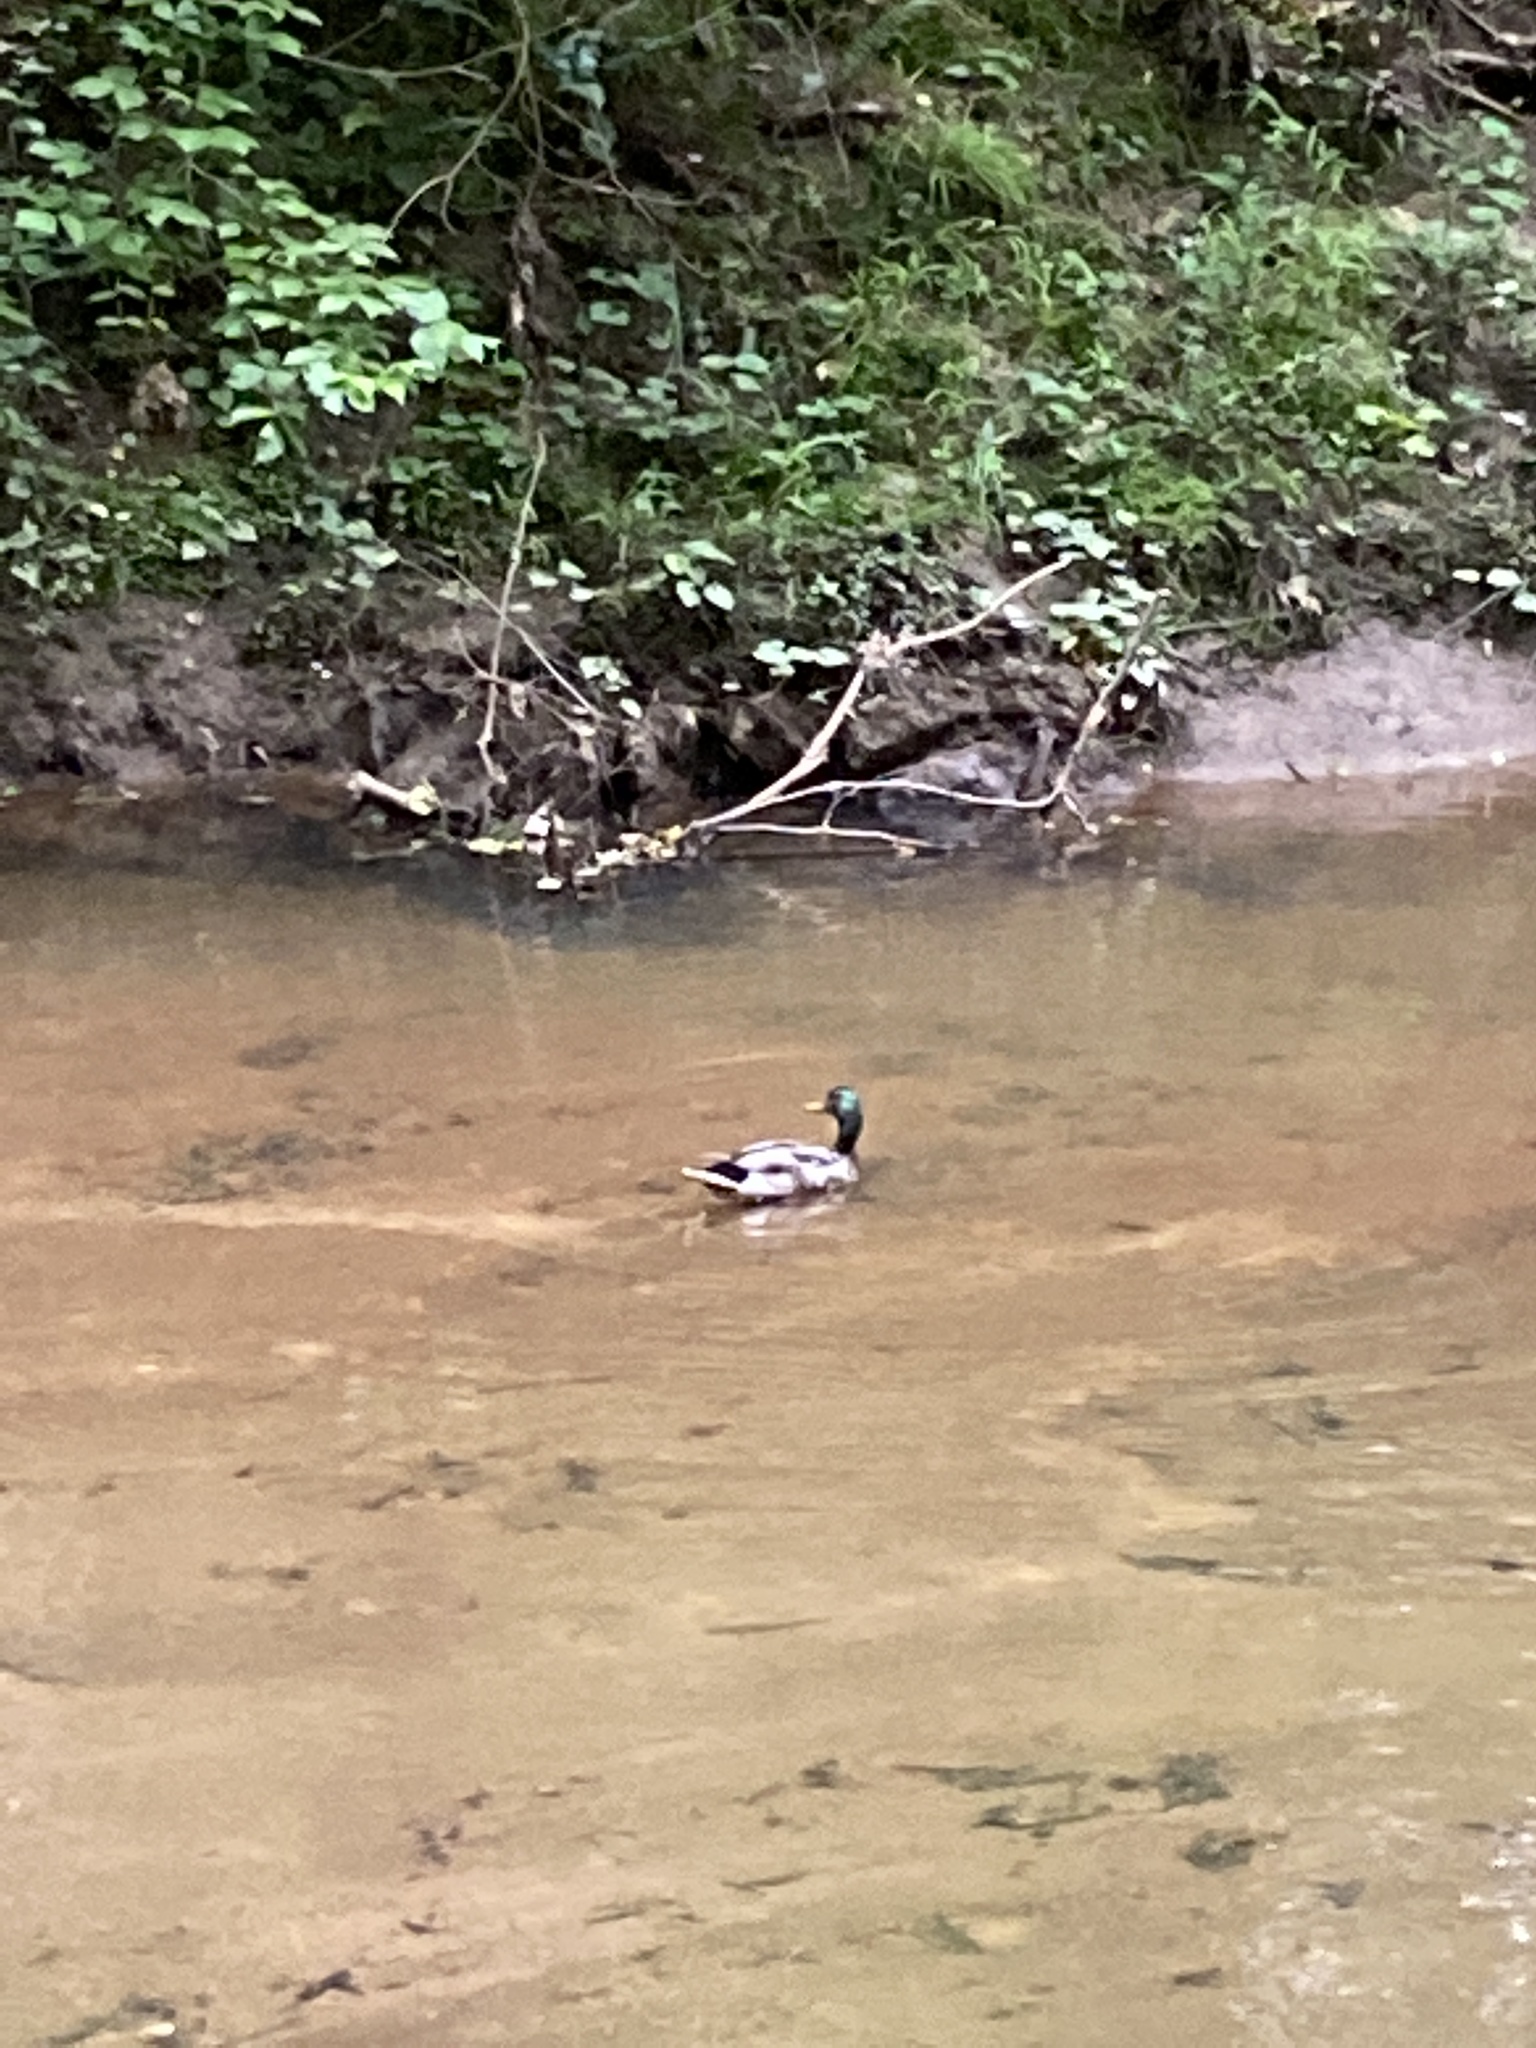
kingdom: Animalia
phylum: Chordata
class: Aves
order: Anseriformes
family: Anatidae
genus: Anas
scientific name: Anas platyrhynchos
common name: Mallard
